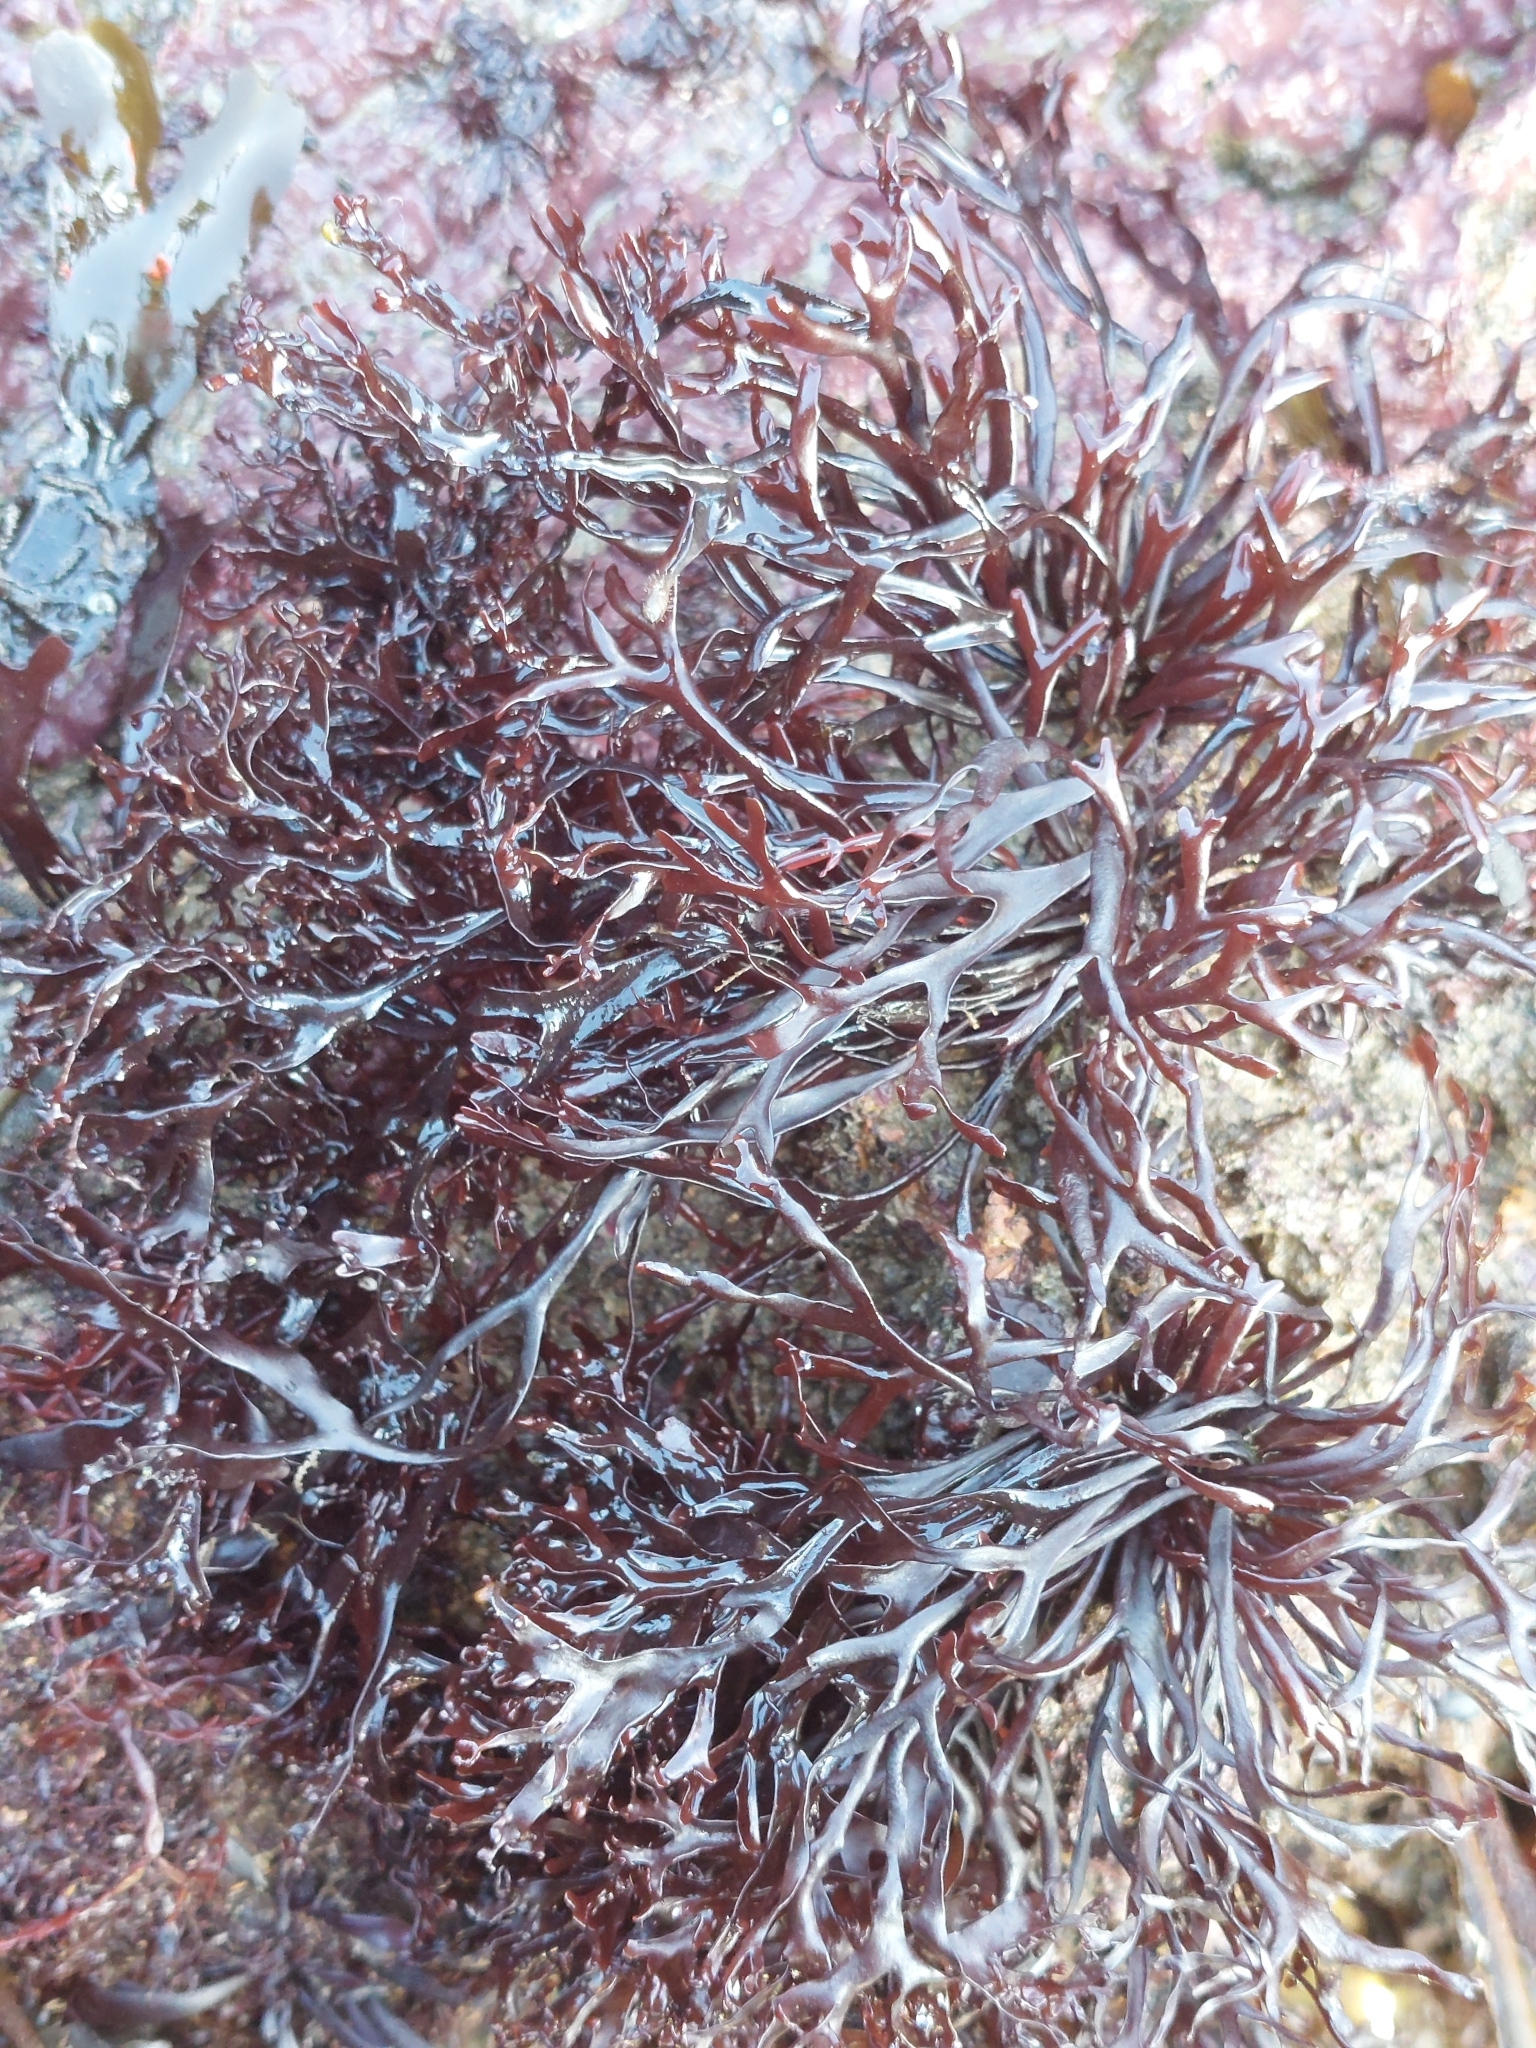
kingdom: Plantae
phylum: Rhodophyta
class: Florideophyceae
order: Gigartinales
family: Phyllophoraceae
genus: Mastocarpus
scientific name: Mastocarpus stellatus
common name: False irish moss
